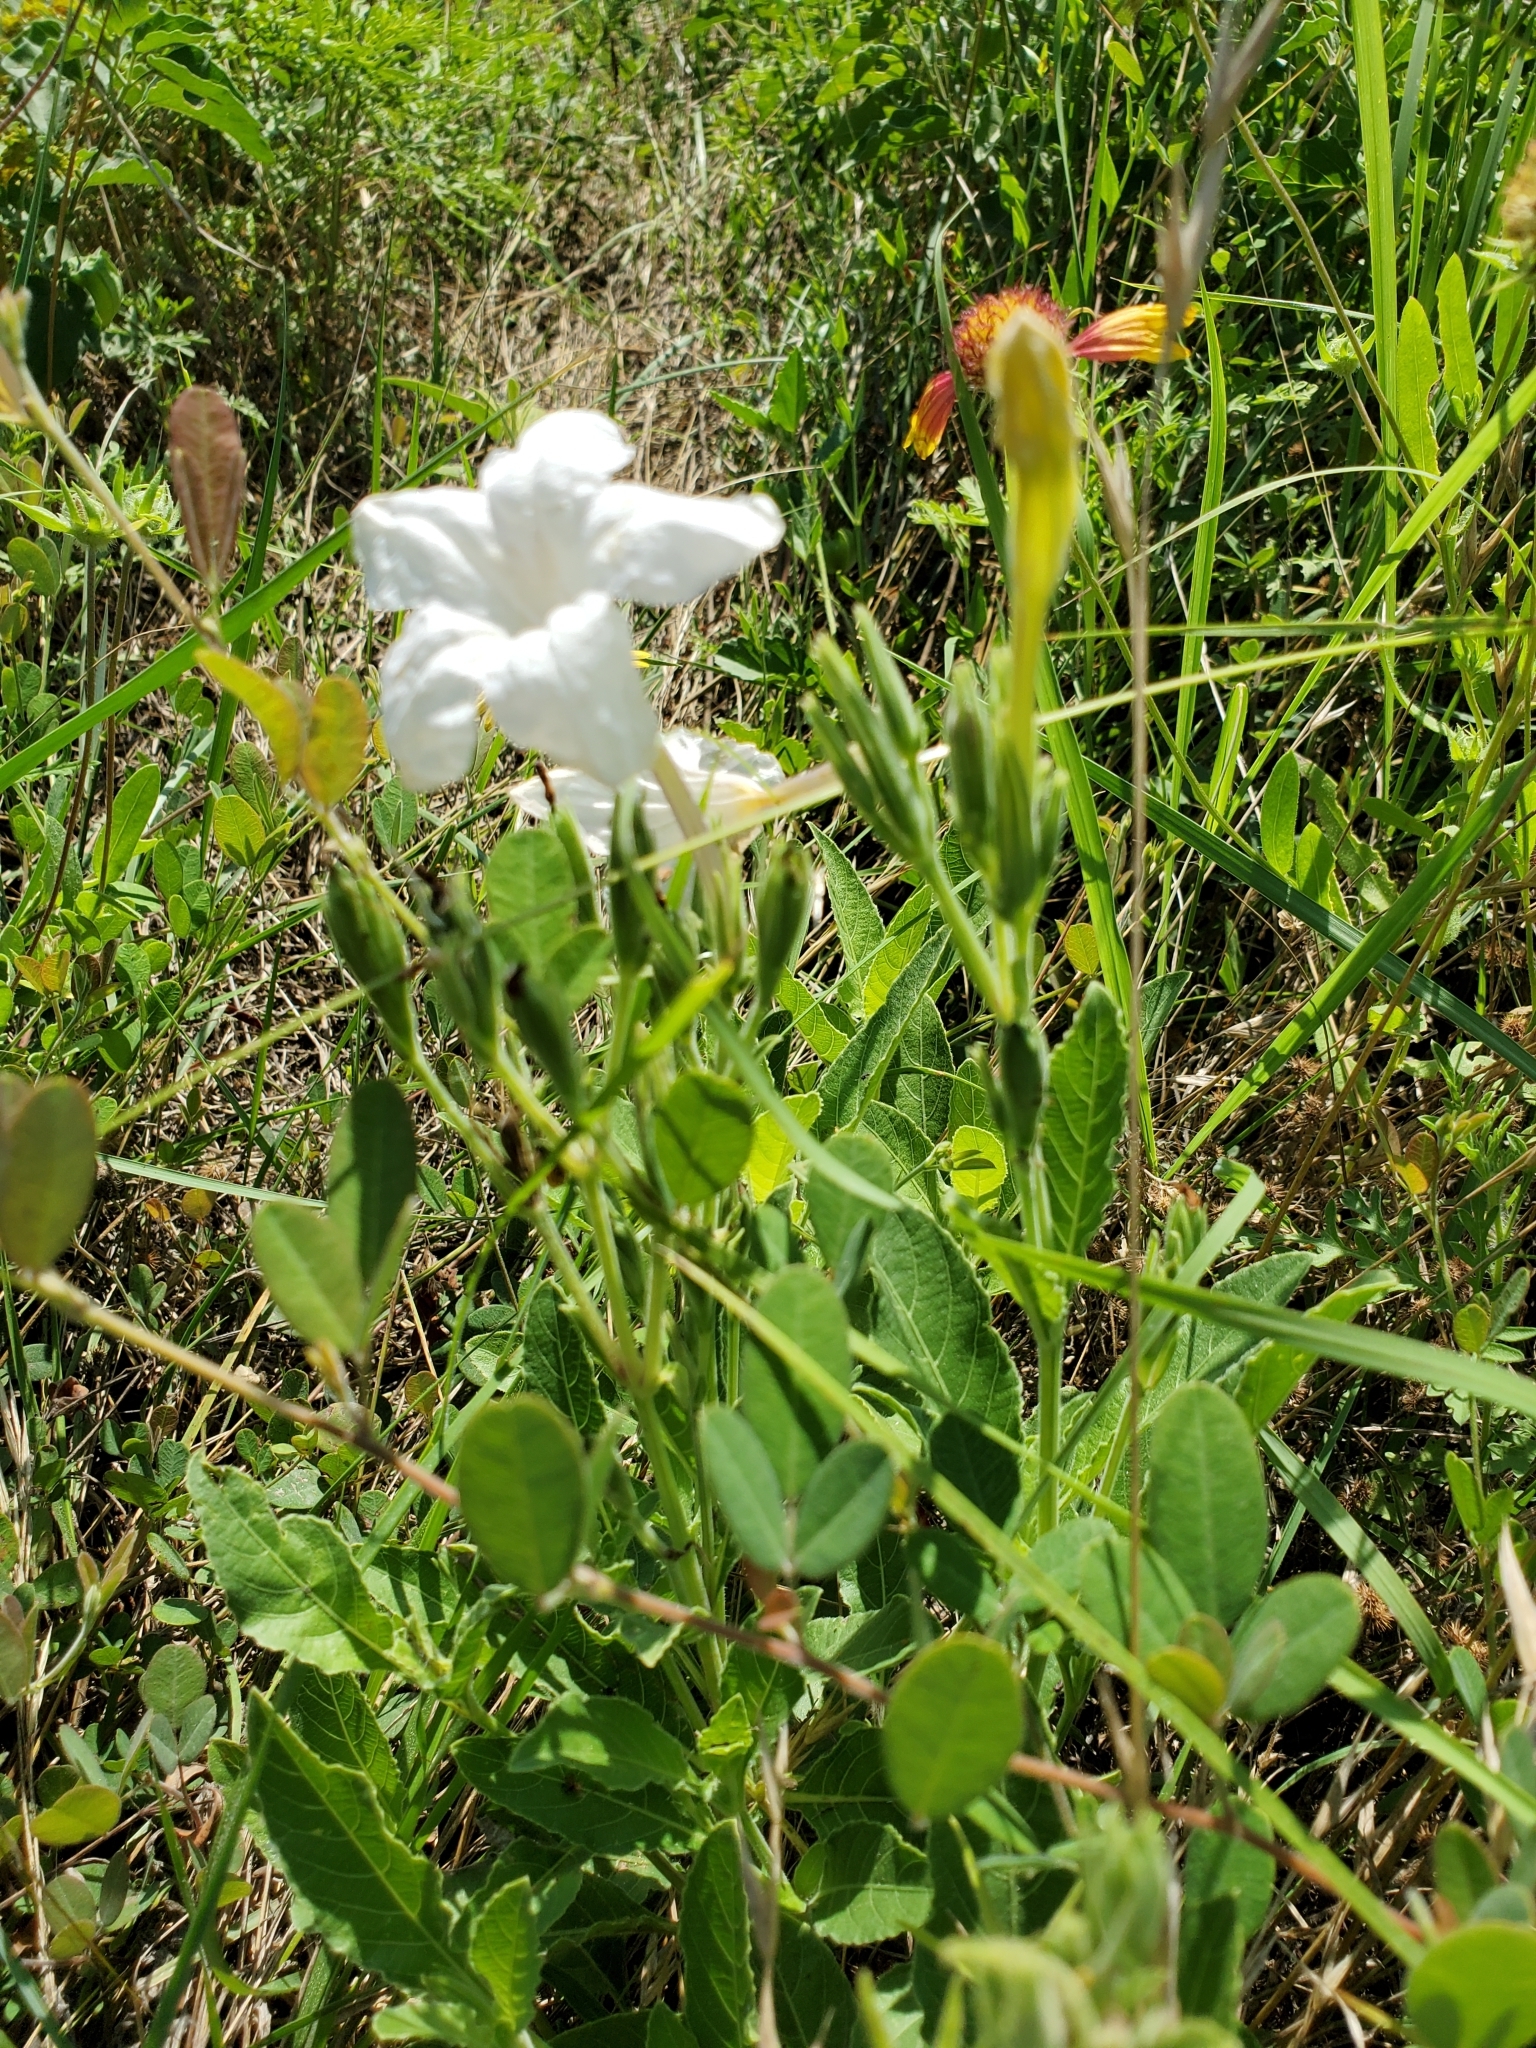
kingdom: Plantae
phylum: Tracheophyta
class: Magnoliopsida
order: Lamiales
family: Acanthaceae
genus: Ruellia
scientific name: Ruellia metziae
